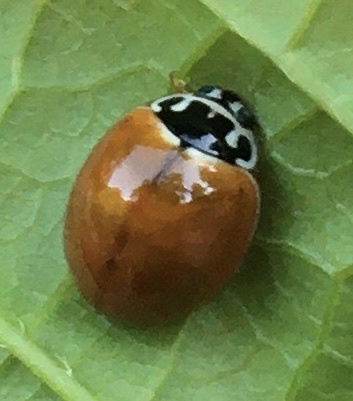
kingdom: Animalia
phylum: Arthropoda
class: Insecta
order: Coleoptera
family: Coccinellidae
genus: Cycloneda
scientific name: Cycloneda munda
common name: Polished lady beetle
